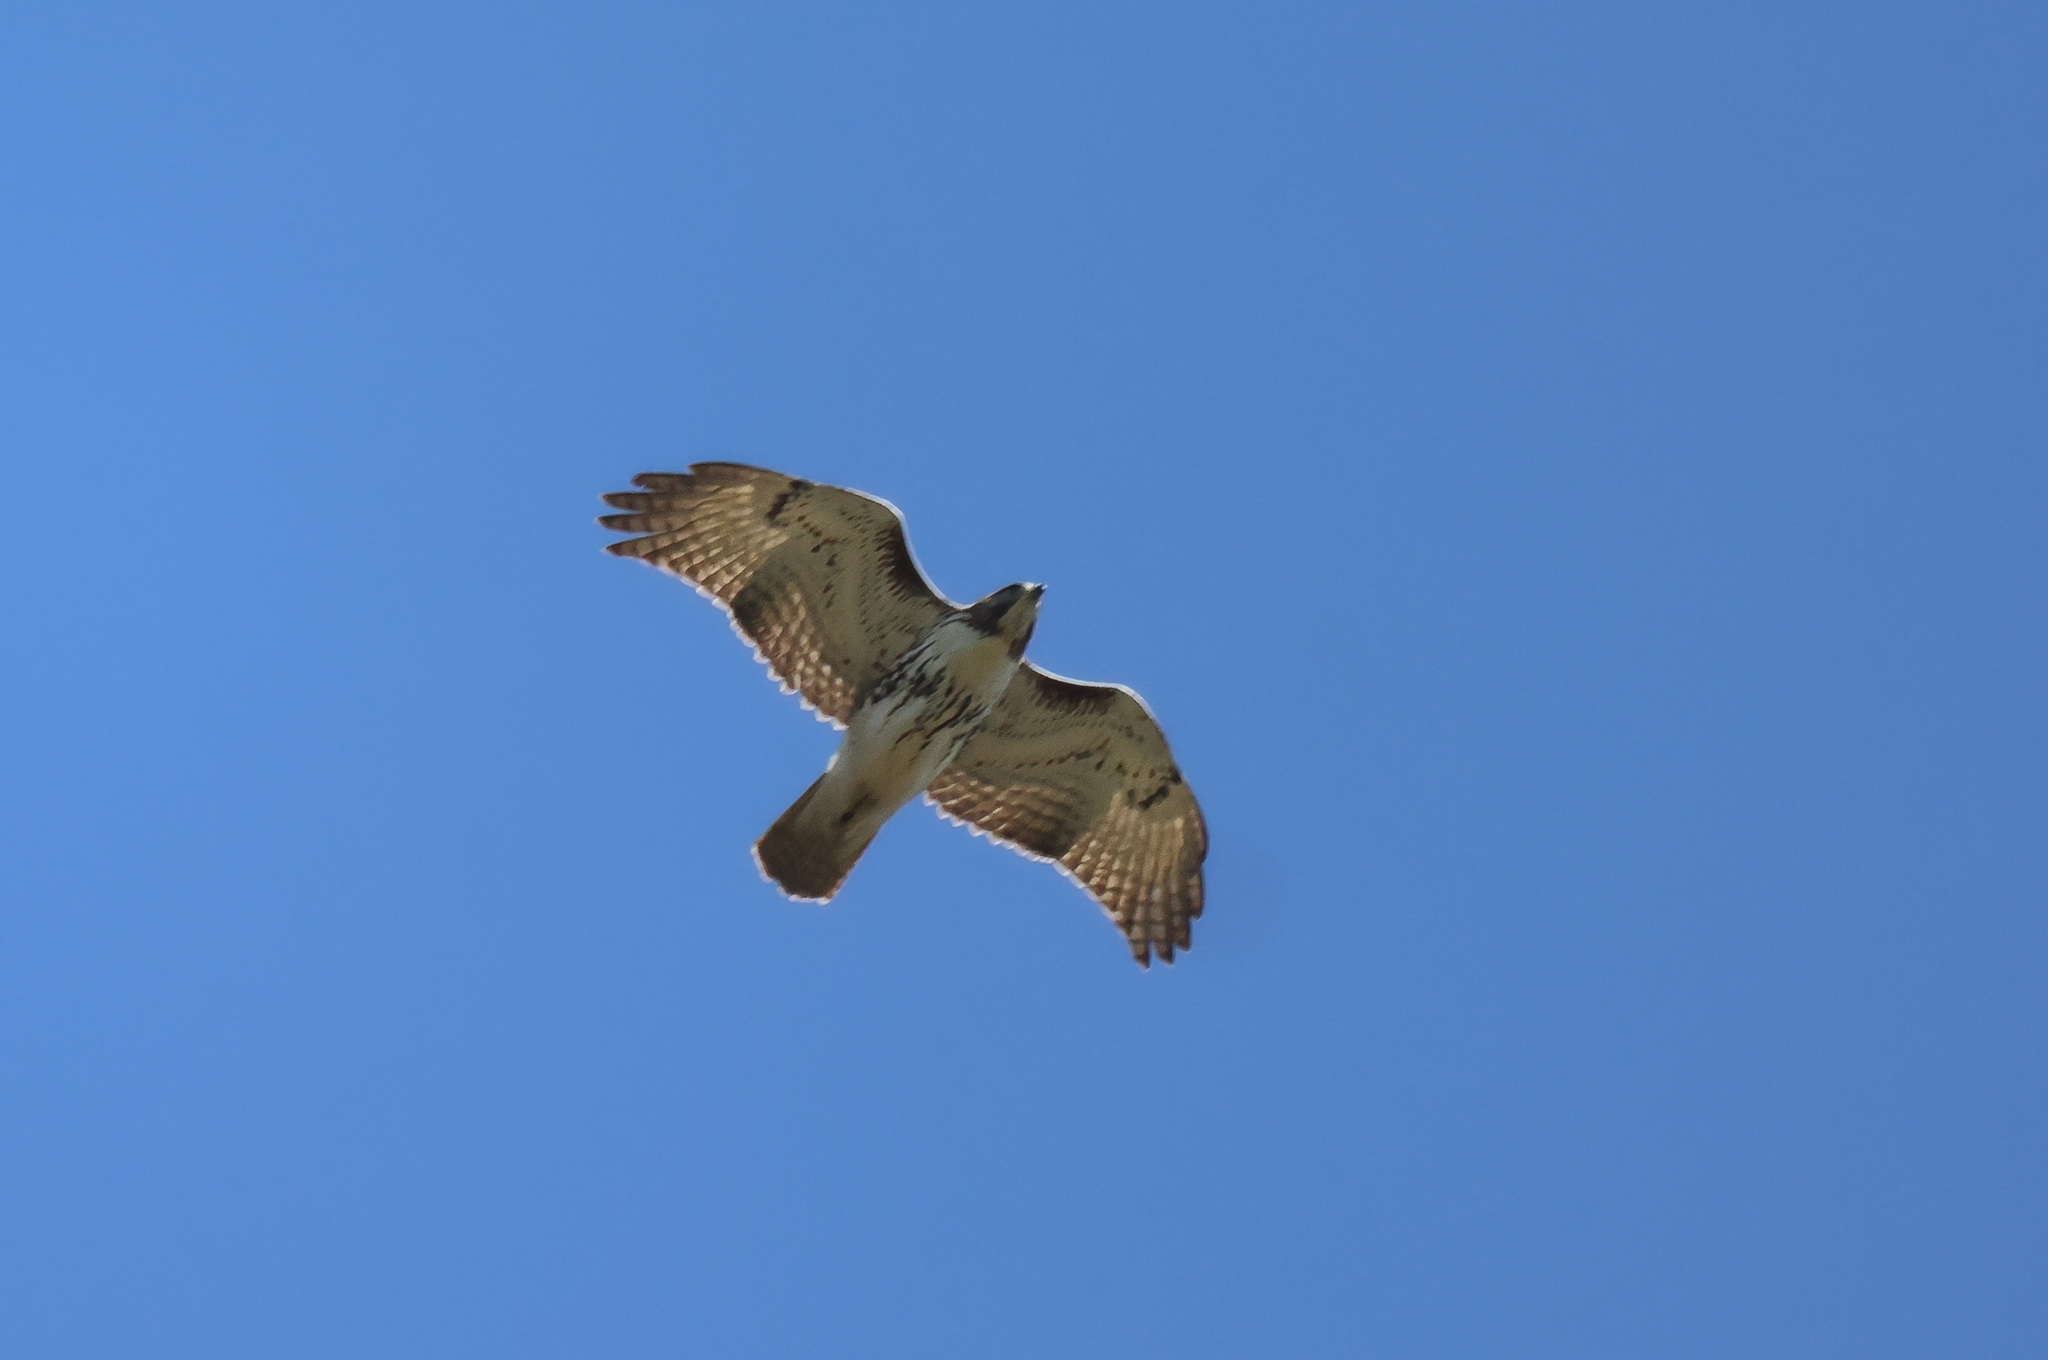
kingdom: Animalia
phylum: Chordata
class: Aves
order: Accipitriformes
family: Accipitridae
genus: Buteo
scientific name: Buteo jamaicensis
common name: Red-tailed hawk
